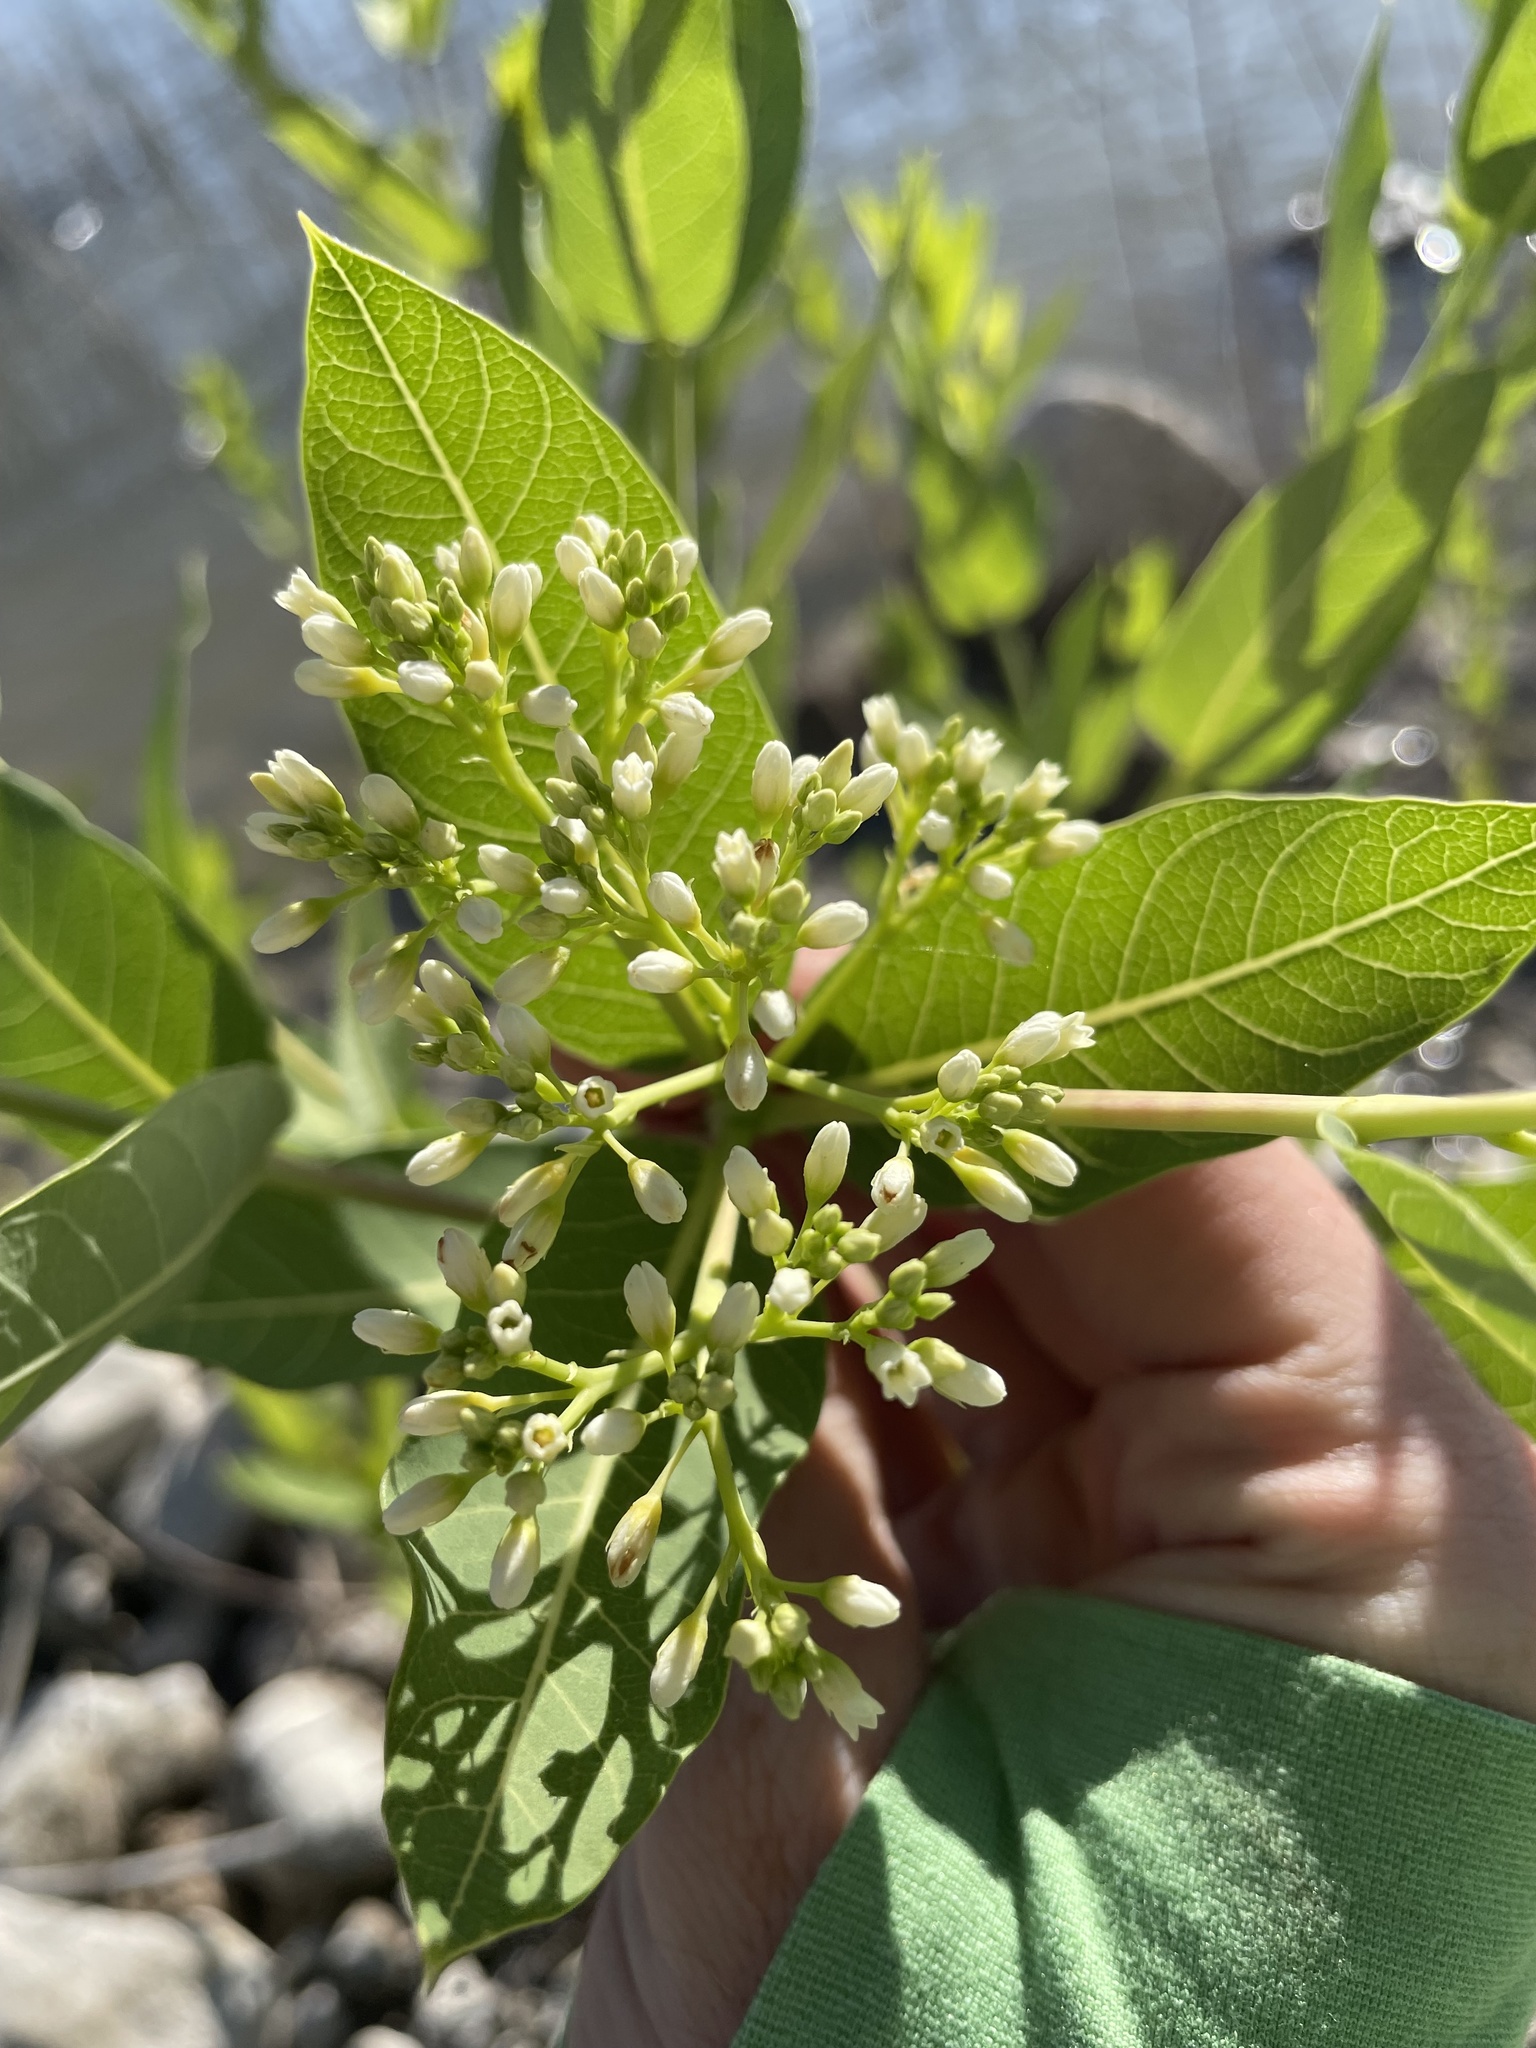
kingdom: Plantae
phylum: Tracheophyta
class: Magnoliopsida
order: Gentianales
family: Apocynaceae
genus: Apocynum
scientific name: Apocynum cannabinum
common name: Hemp dogbane
